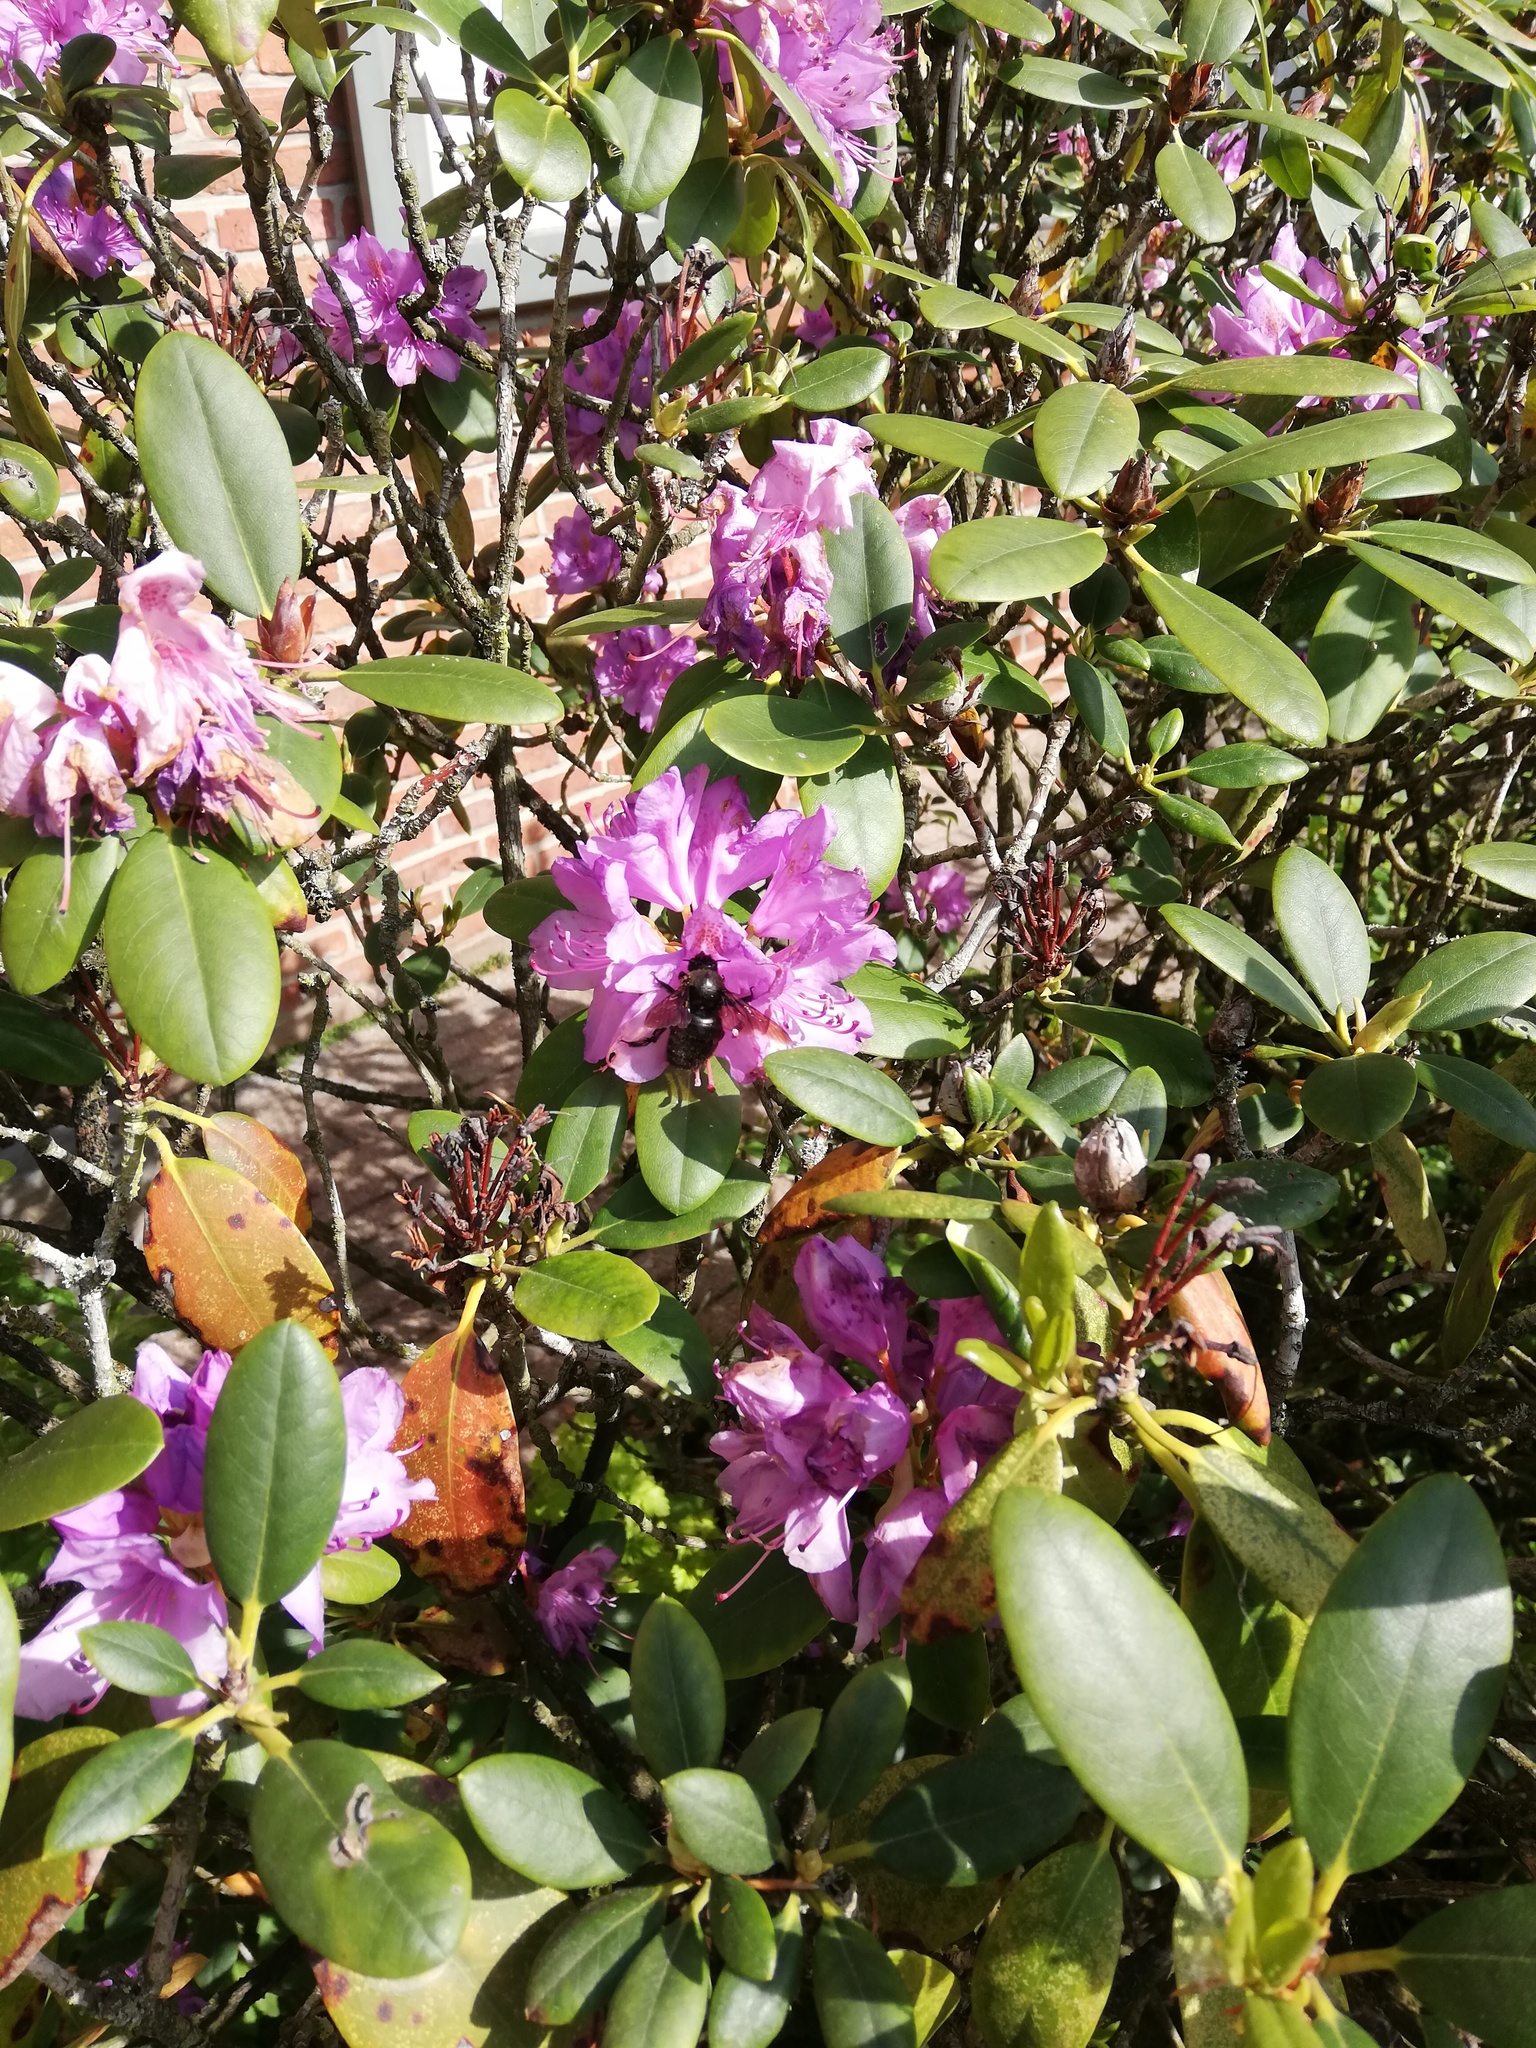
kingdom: Animalia
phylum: Arthropoda
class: Insecta
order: Hymenoptera
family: Apidae
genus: Xylocopa
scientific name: Xylocopa violacea
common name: Violet carpenter bee
